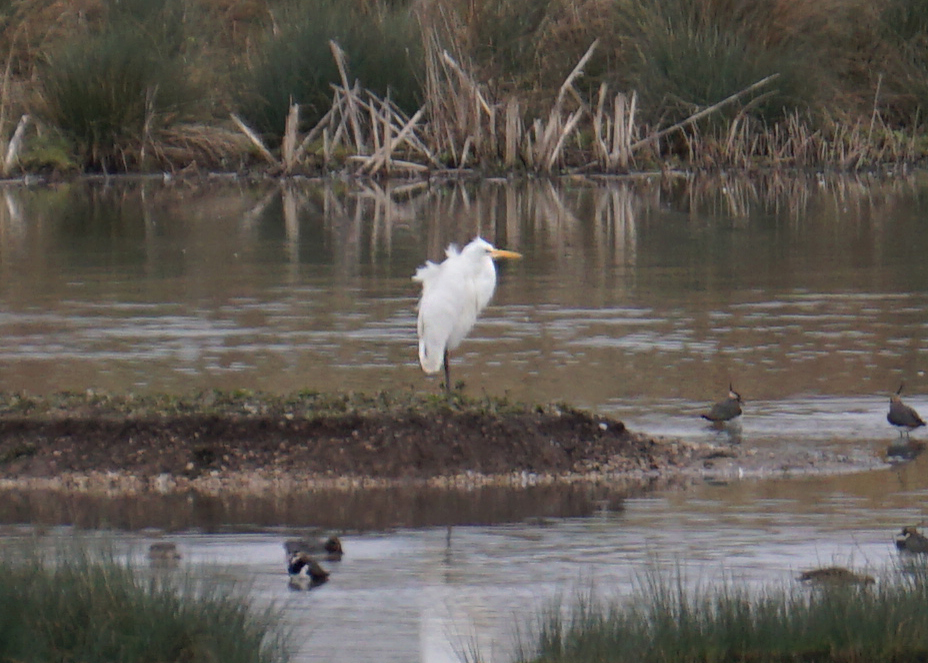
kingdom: Animalia
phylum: Chordata
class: Aves
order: Pelecaniformes
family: Ardeidae
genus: Ardea
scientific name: Ardea alba
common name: Great egret
